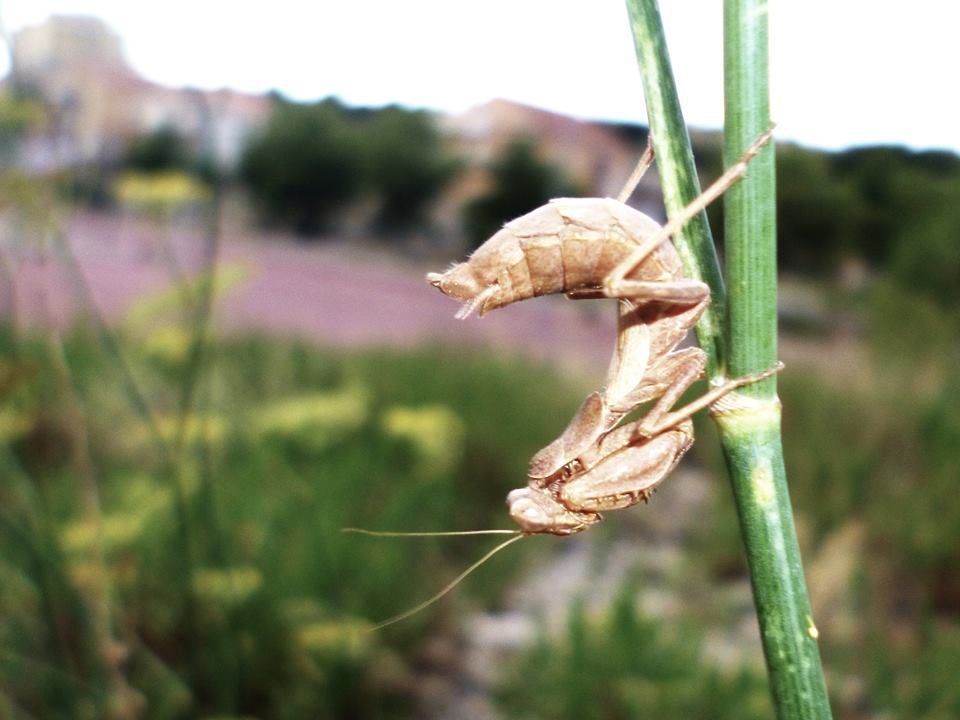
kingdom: Animalia
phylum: Arthropoda
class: Insecta
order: Mantodea
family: Amelidae
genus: Ameles
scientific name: Ameles spallanzania
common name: European dwarf mantis
